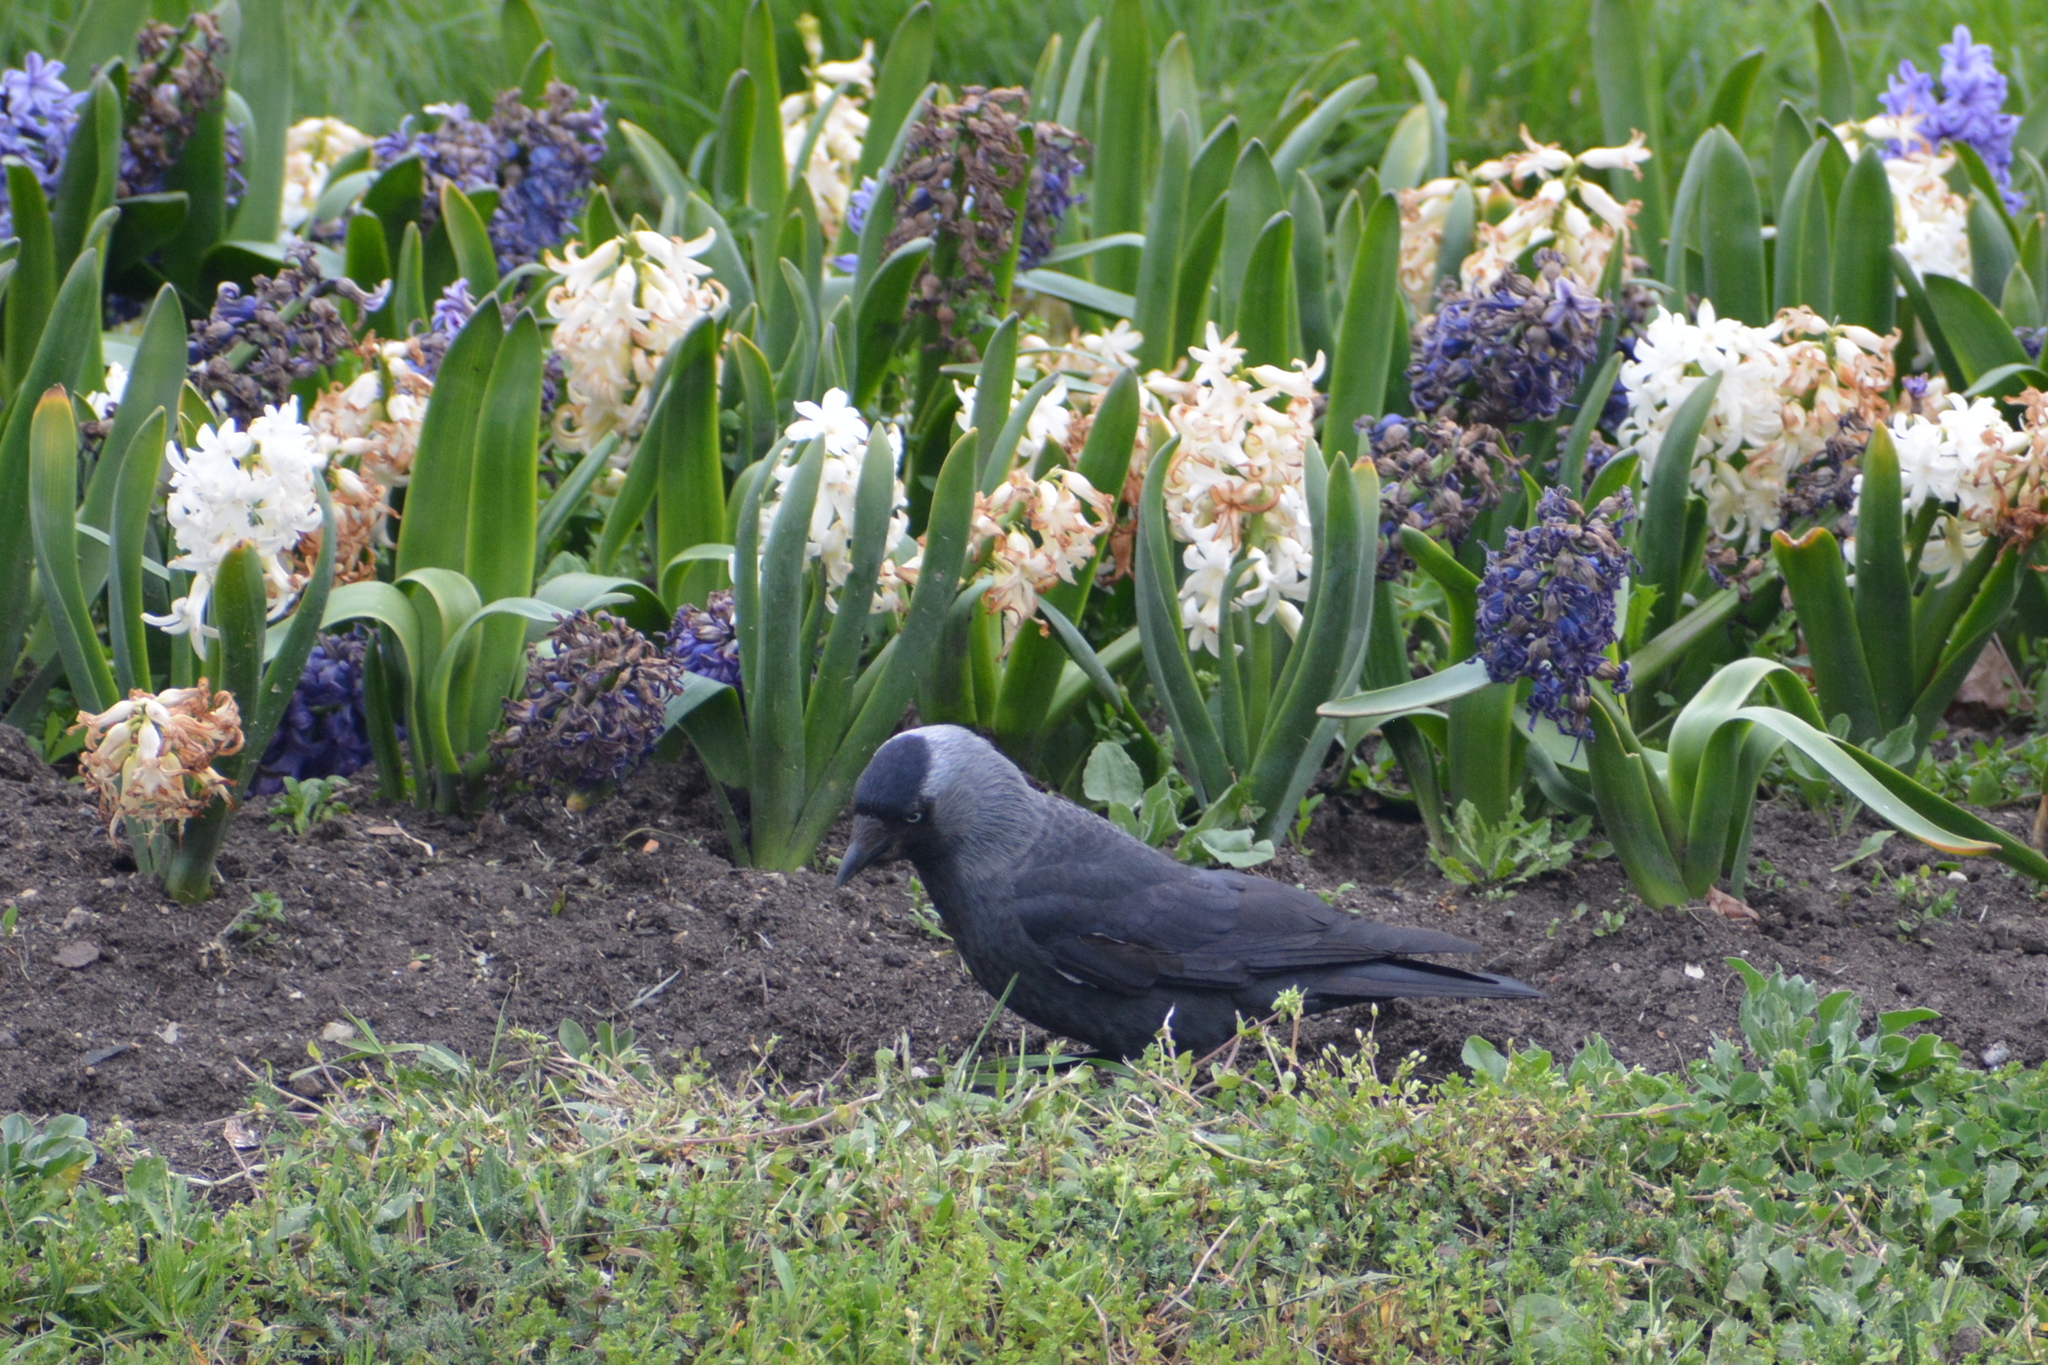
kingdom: Animalia
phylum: Chordata
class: Aves
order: Passeriformes
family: Corvidae
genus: Coloeus
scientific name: Coloeus monedula
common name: Western jackdaw
